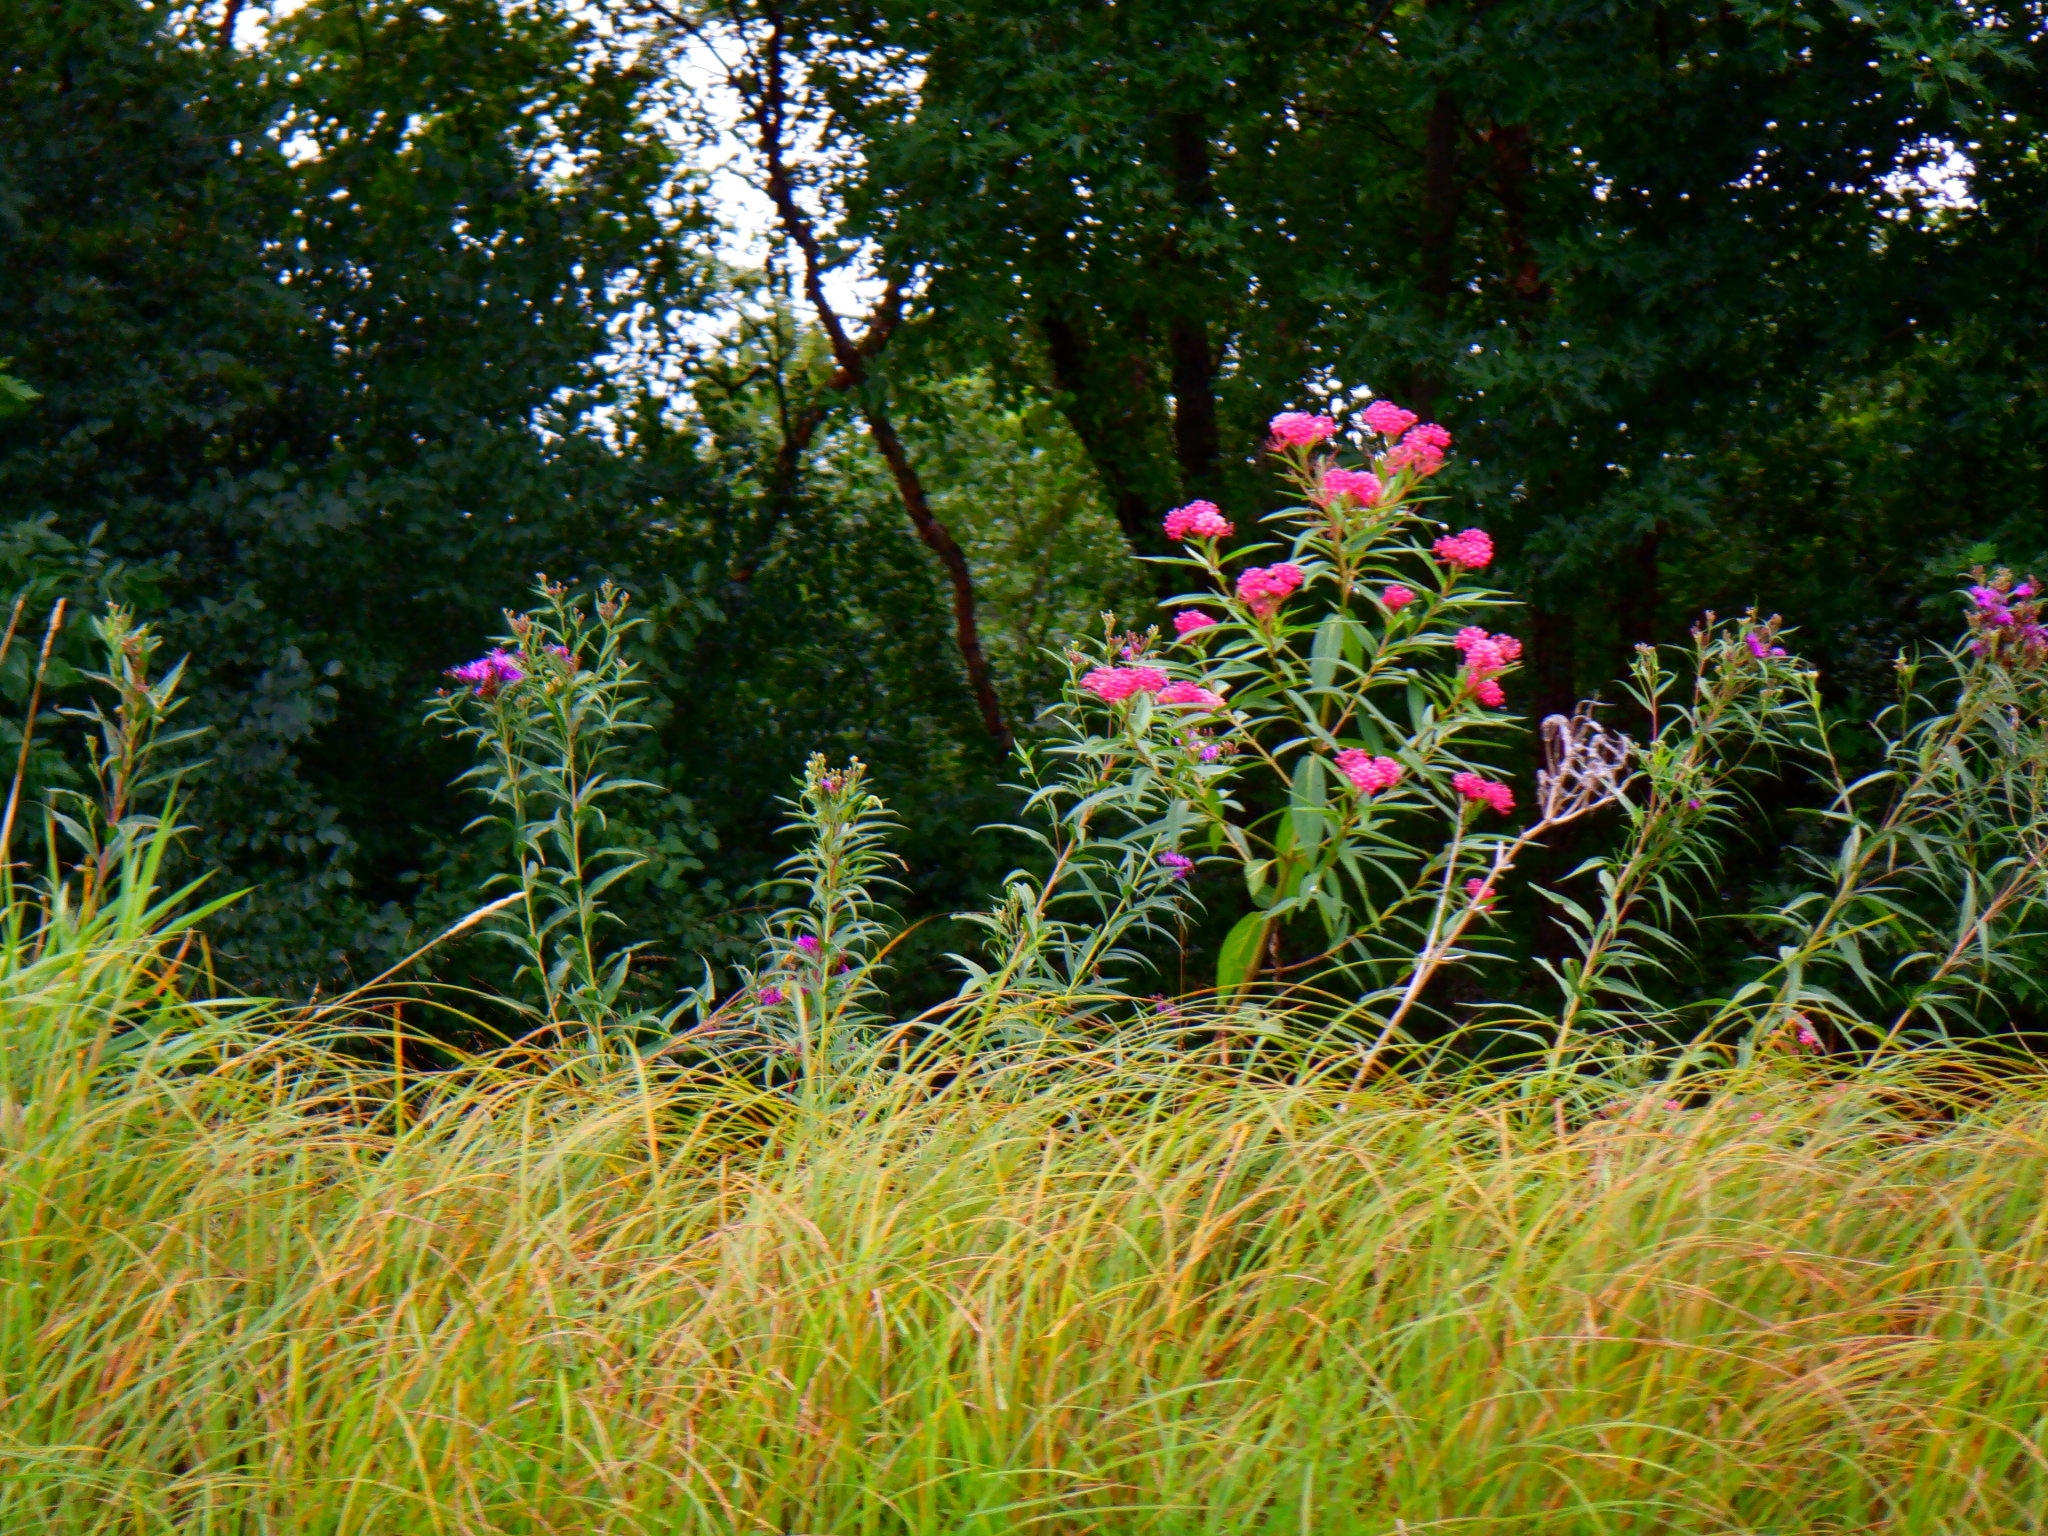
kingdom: Plantae
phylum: Tracheophyta
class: Magnoliopsida
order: Gentianales
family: Apocynaceae
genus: Asclepias
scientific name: Asclepias incarnata
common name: Swamp milkweed
